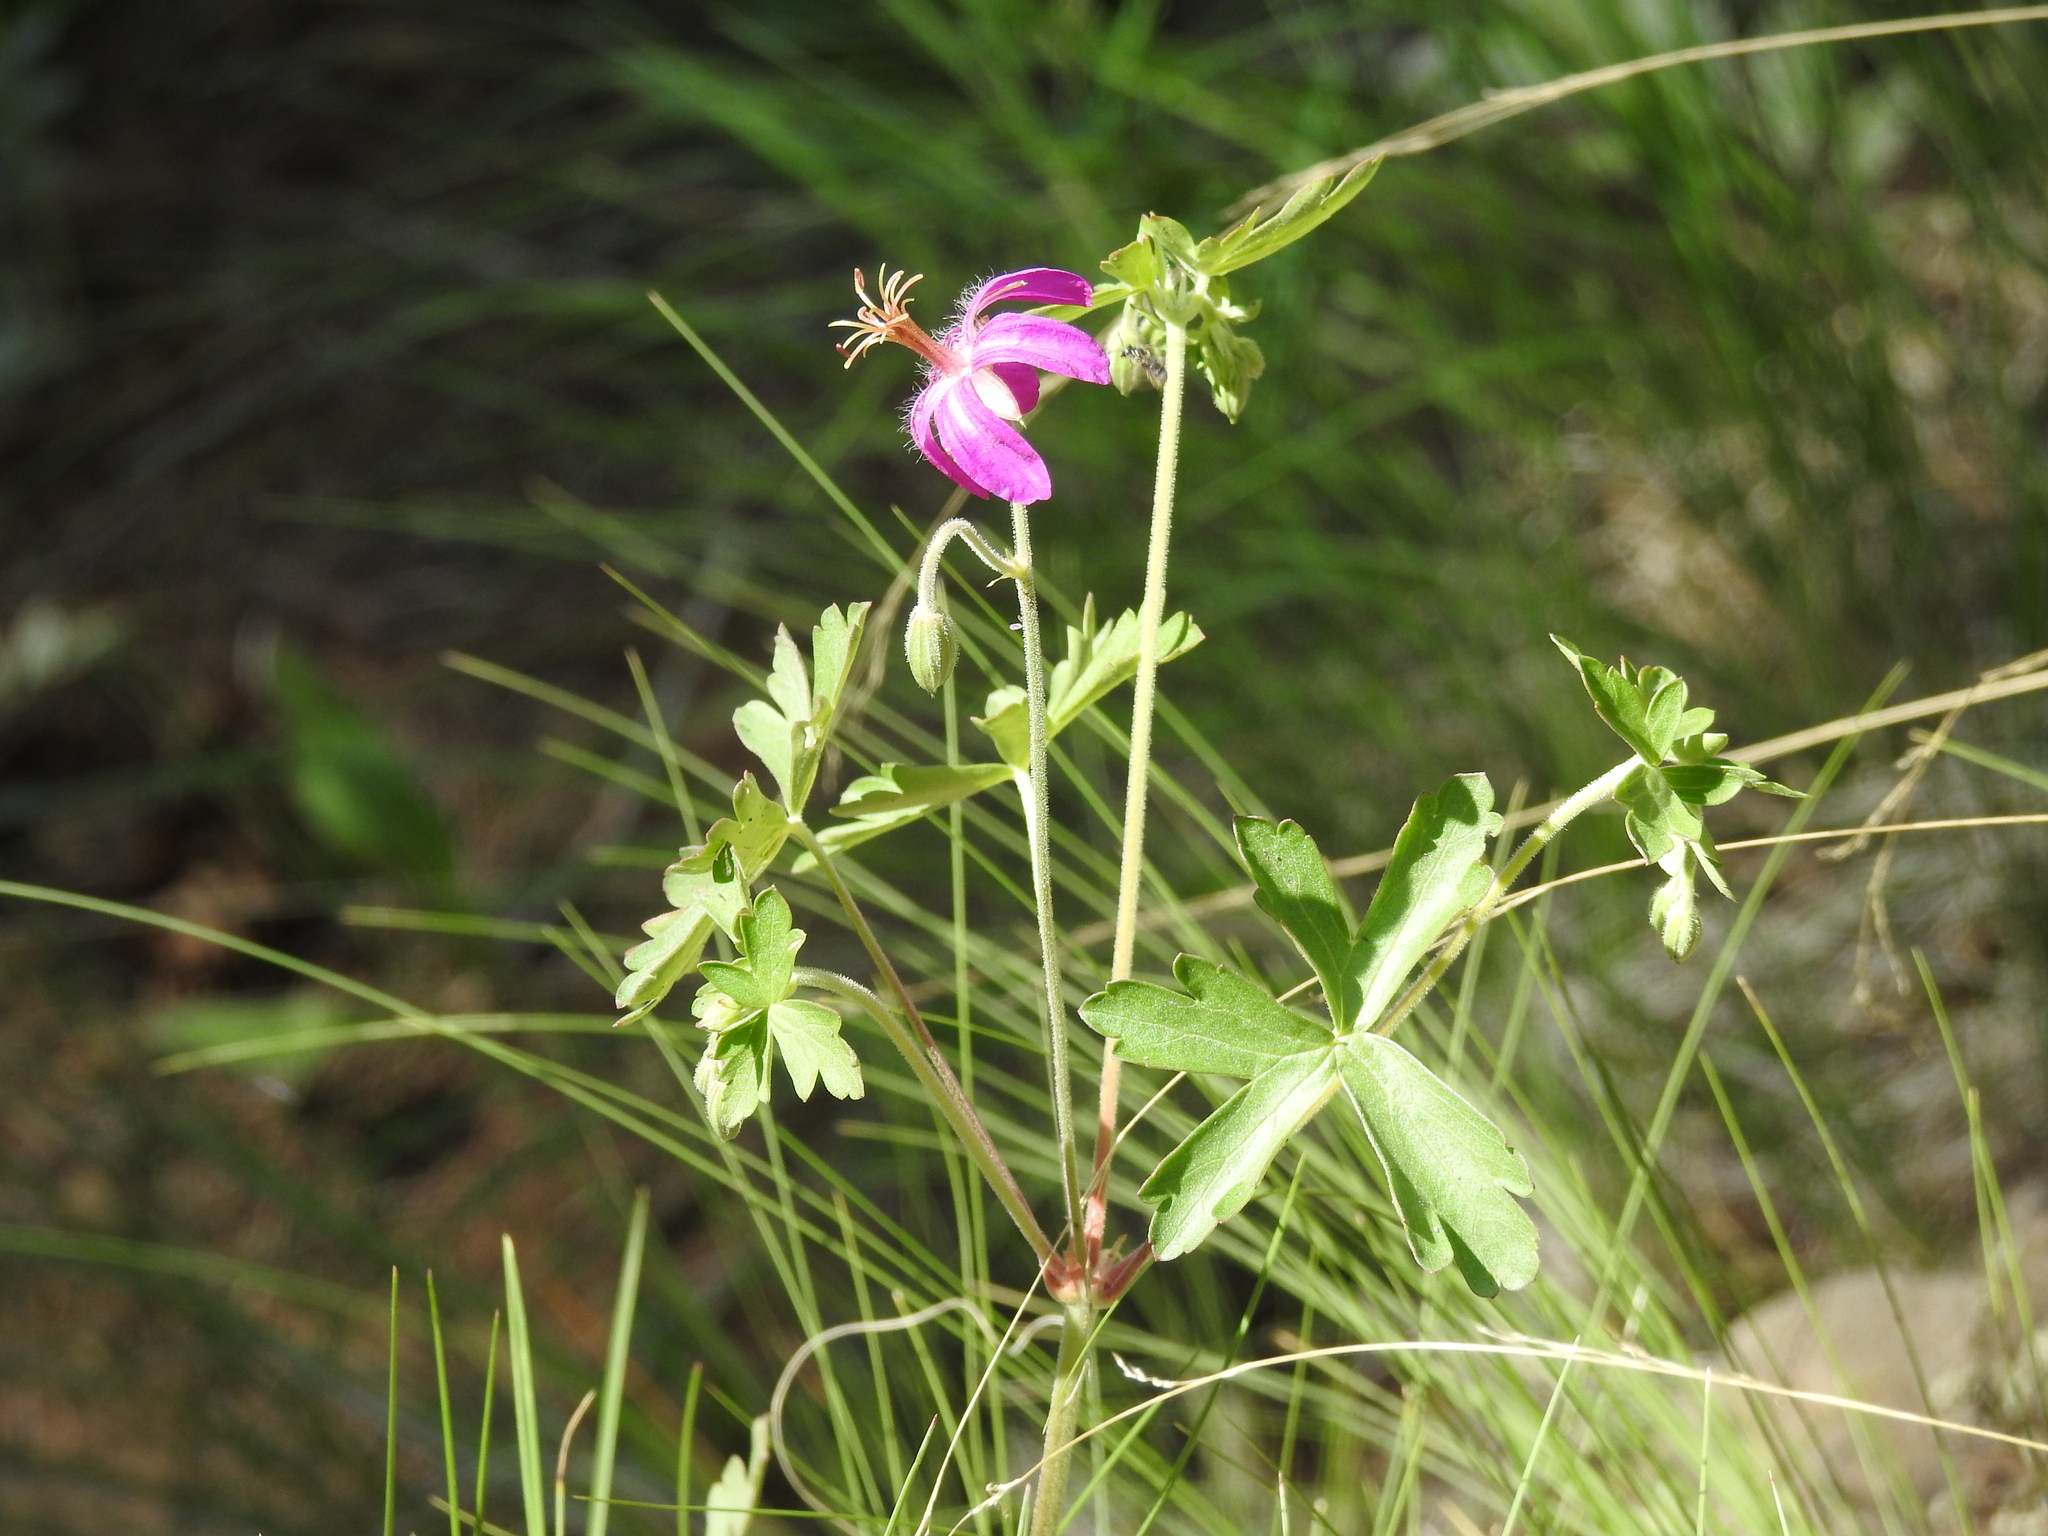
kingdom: Plantae
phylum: Tracheophyta
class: Magnoliopsida
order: Geraniales
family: Geraniaceae
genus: Geranium
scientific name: Geranium caespitosum
